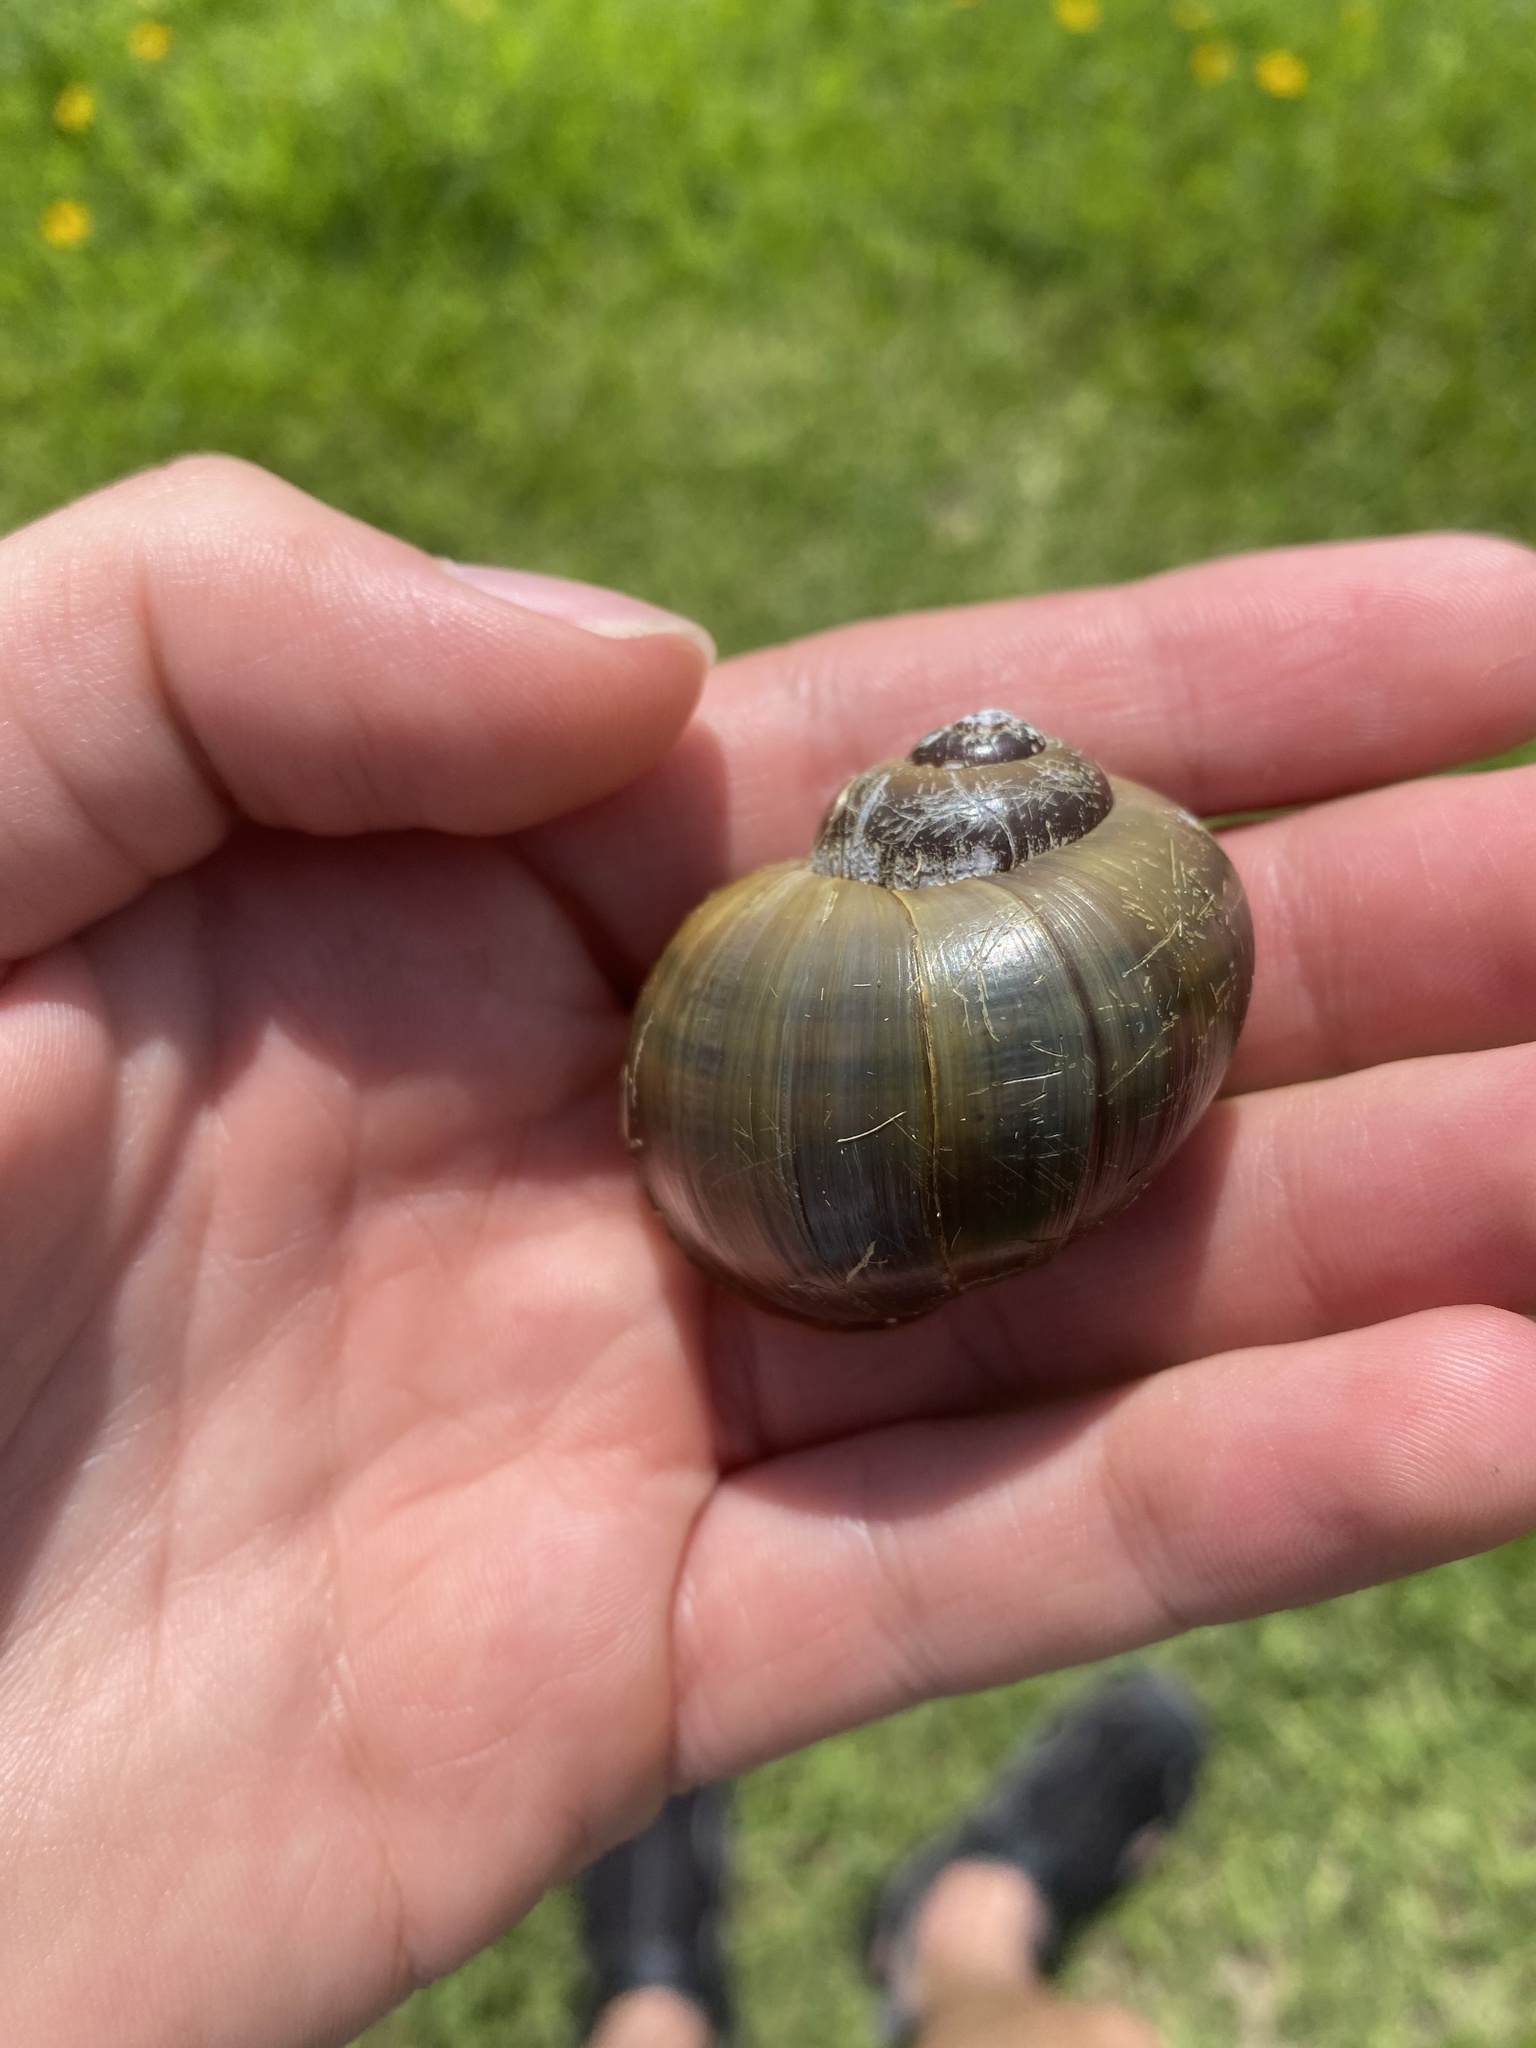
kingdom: Animalia
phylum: Mollusca
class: Gastropoda
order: Architaenioglossa
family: Ampullariidae
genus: Pomacea
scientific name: Pomacea paludosa
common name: Florida applesnail
